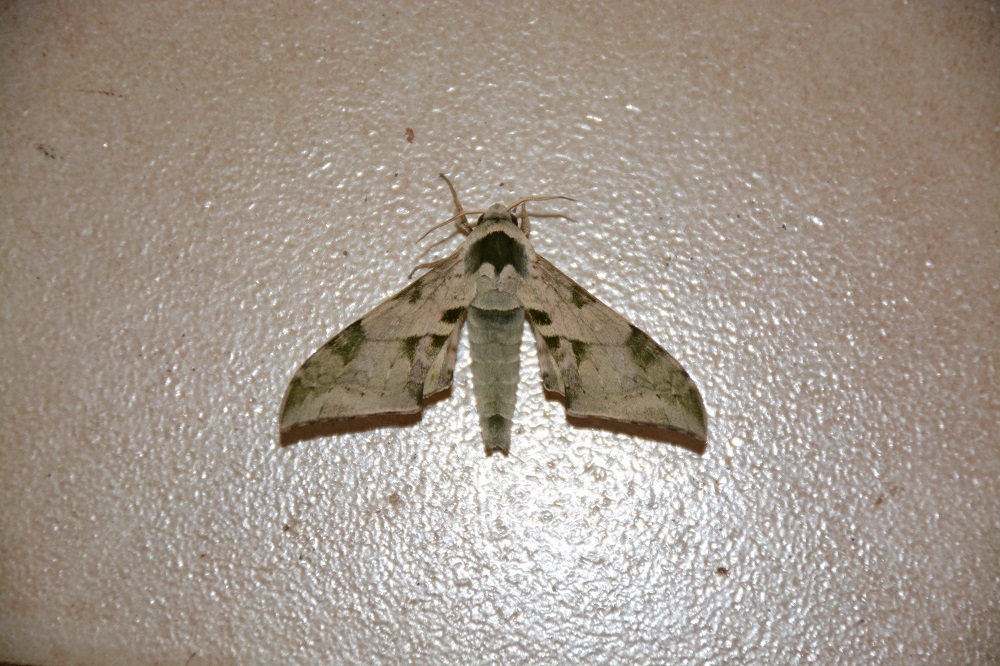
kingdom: Animalia
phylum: Arthropoda
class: Insecta
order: Lepidoptera
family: Sphingidae
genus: Chloroclanis
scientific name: Chloroclanis virescens
